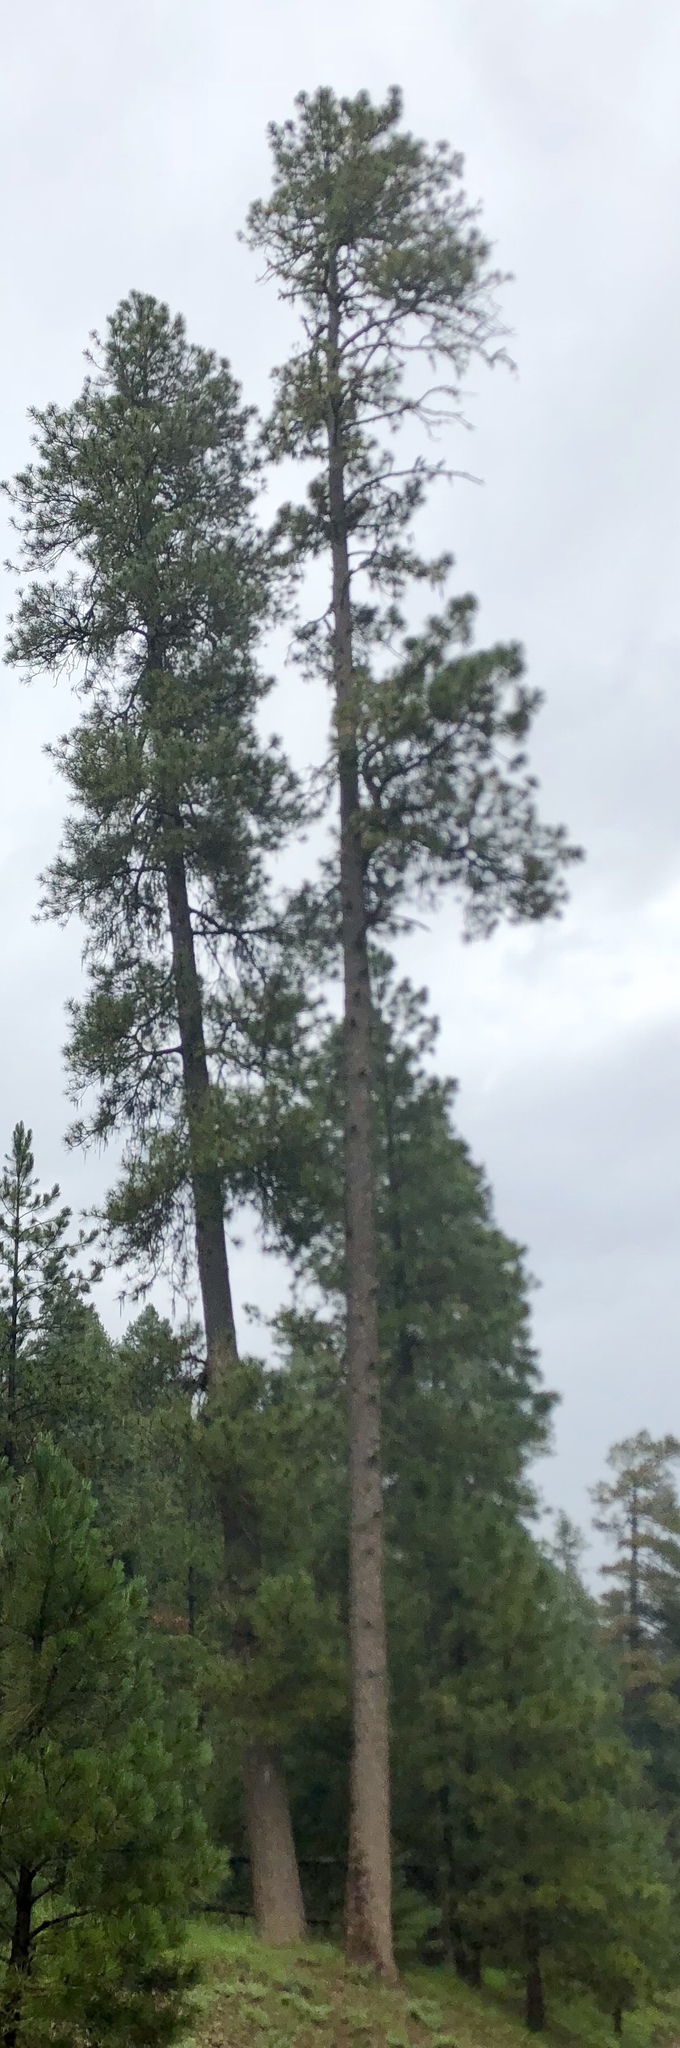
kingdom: Plantae
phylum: Tracheophyta
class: Pinopsida
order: Pinales
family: Pinaceae
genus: Pinus
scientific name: Pinus ponderosa
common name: Western yellow-pine
